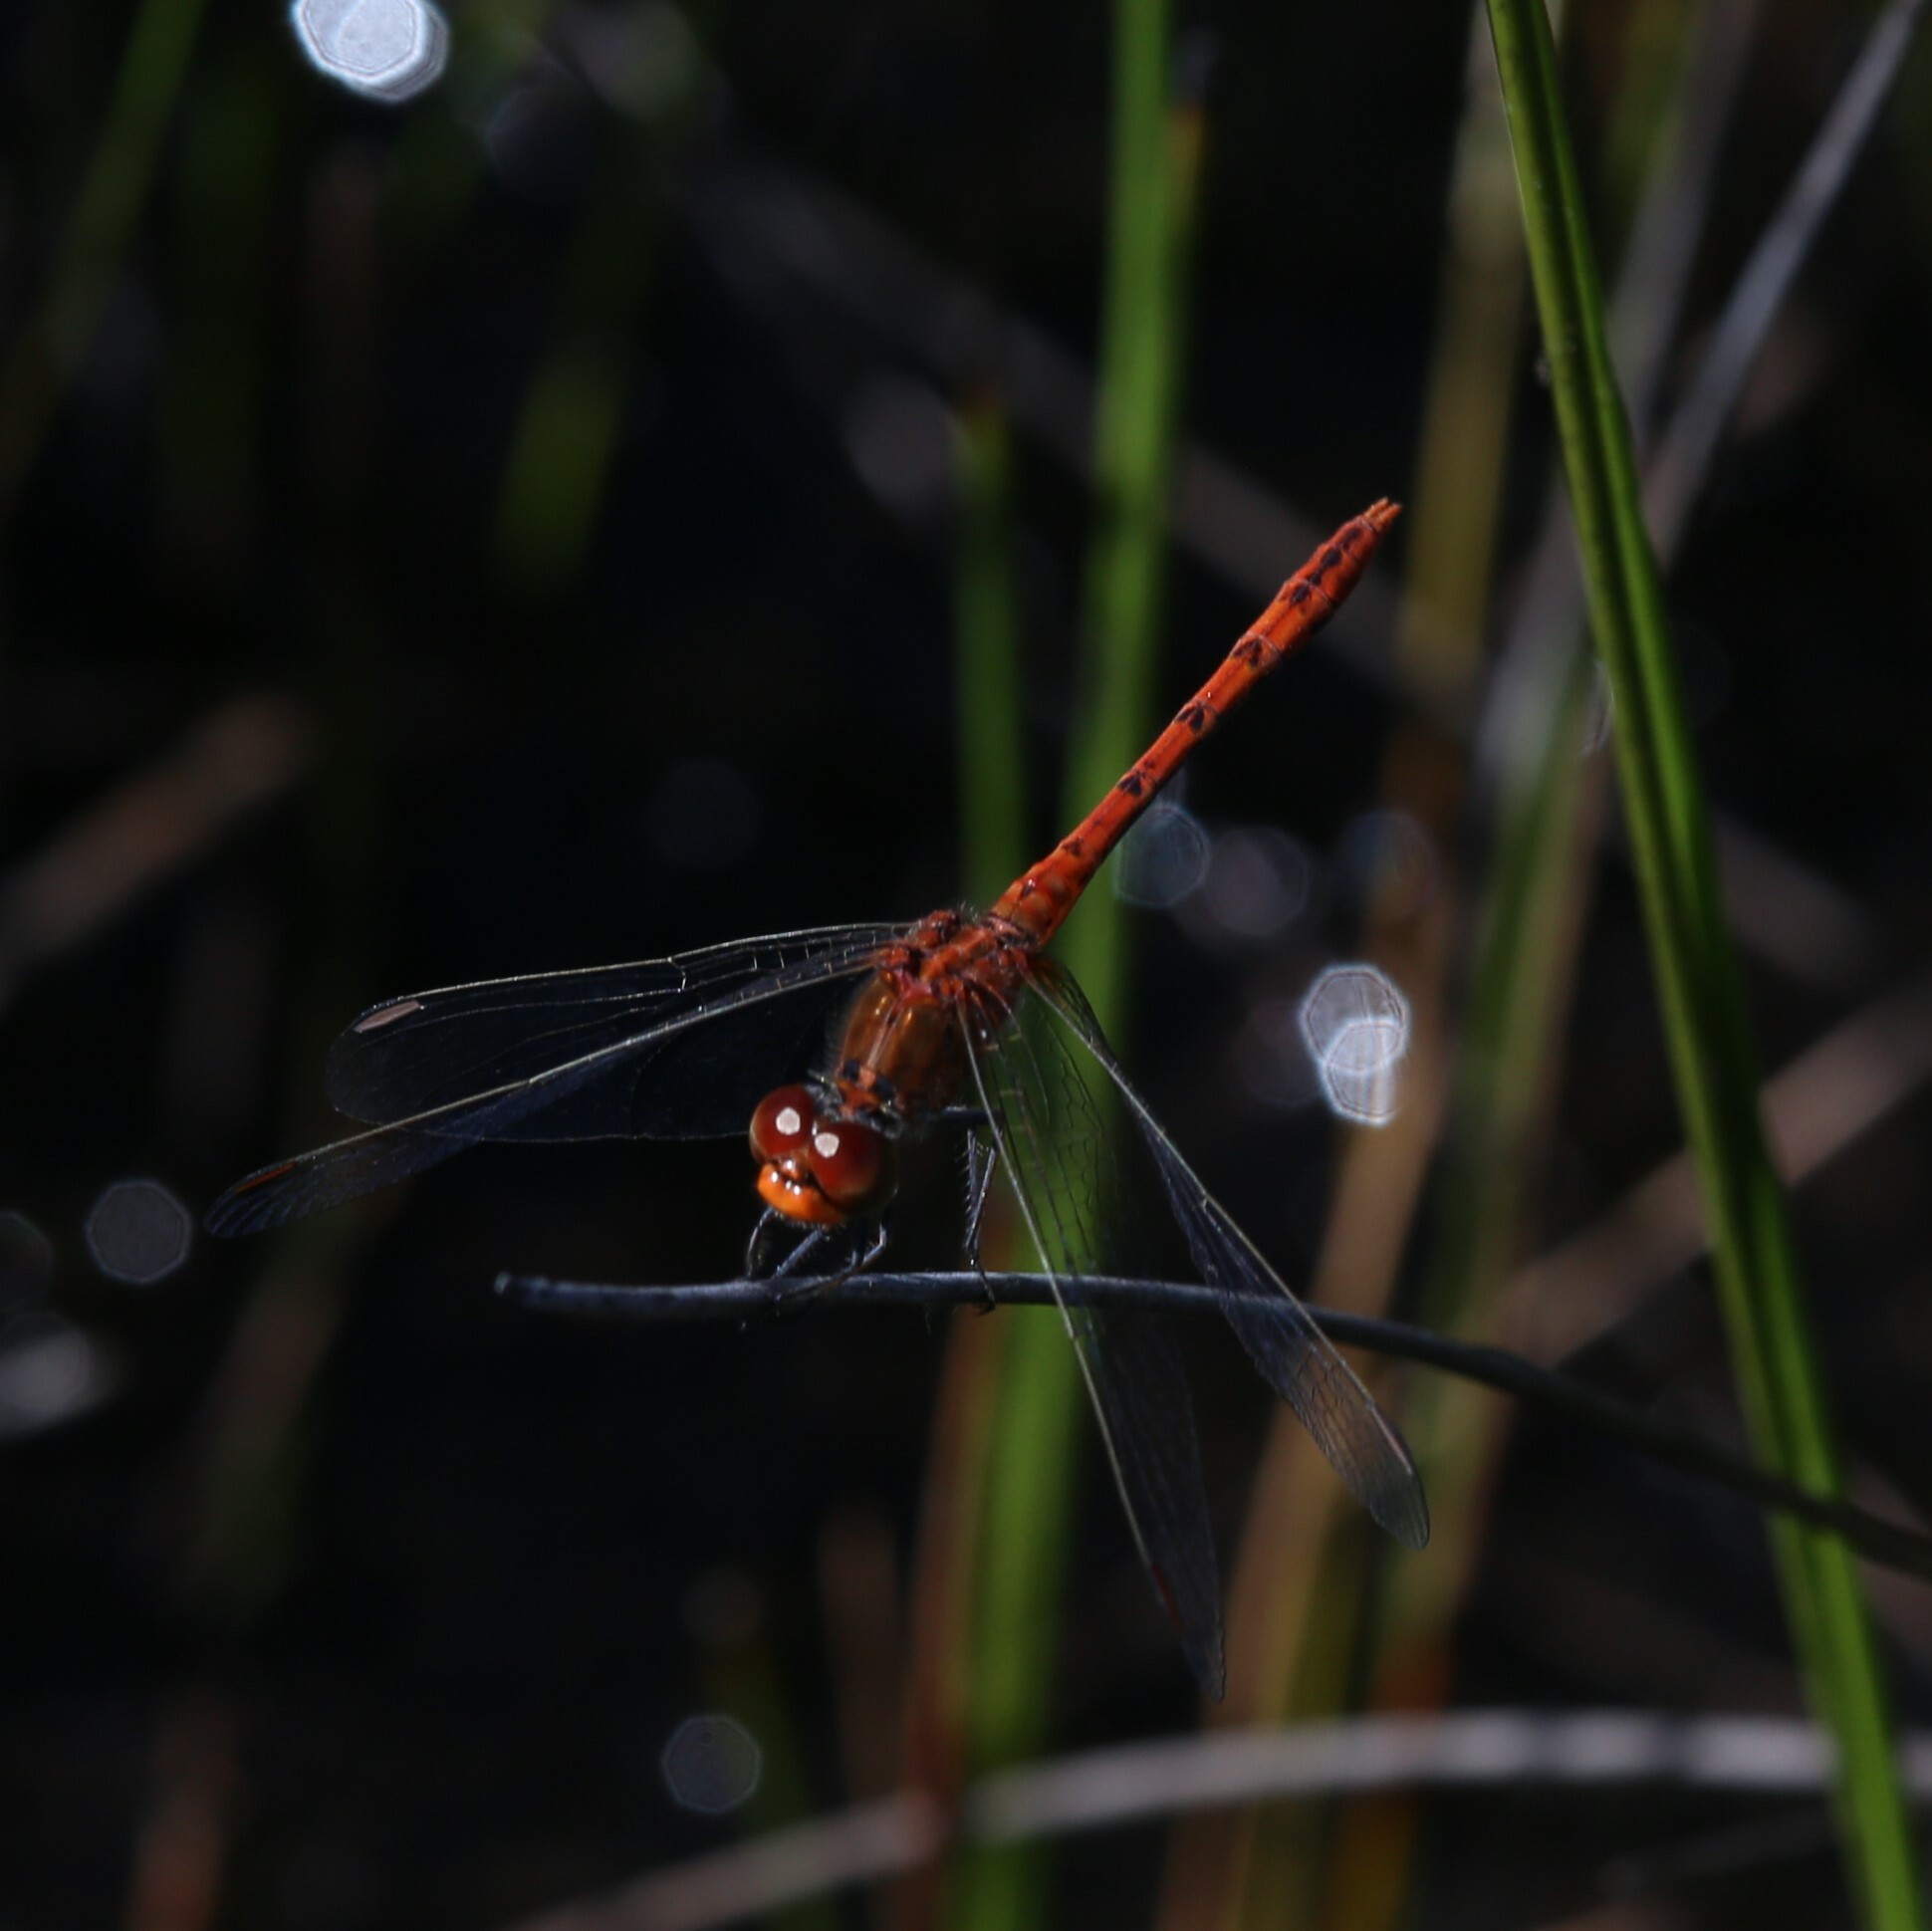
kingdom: Animalia
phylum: Arthropoda
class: Insecta
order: Odonata
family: Libellulidae
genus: Diplacodes
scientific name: Diplacodes bipunctata
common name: Red percher dragonfly
